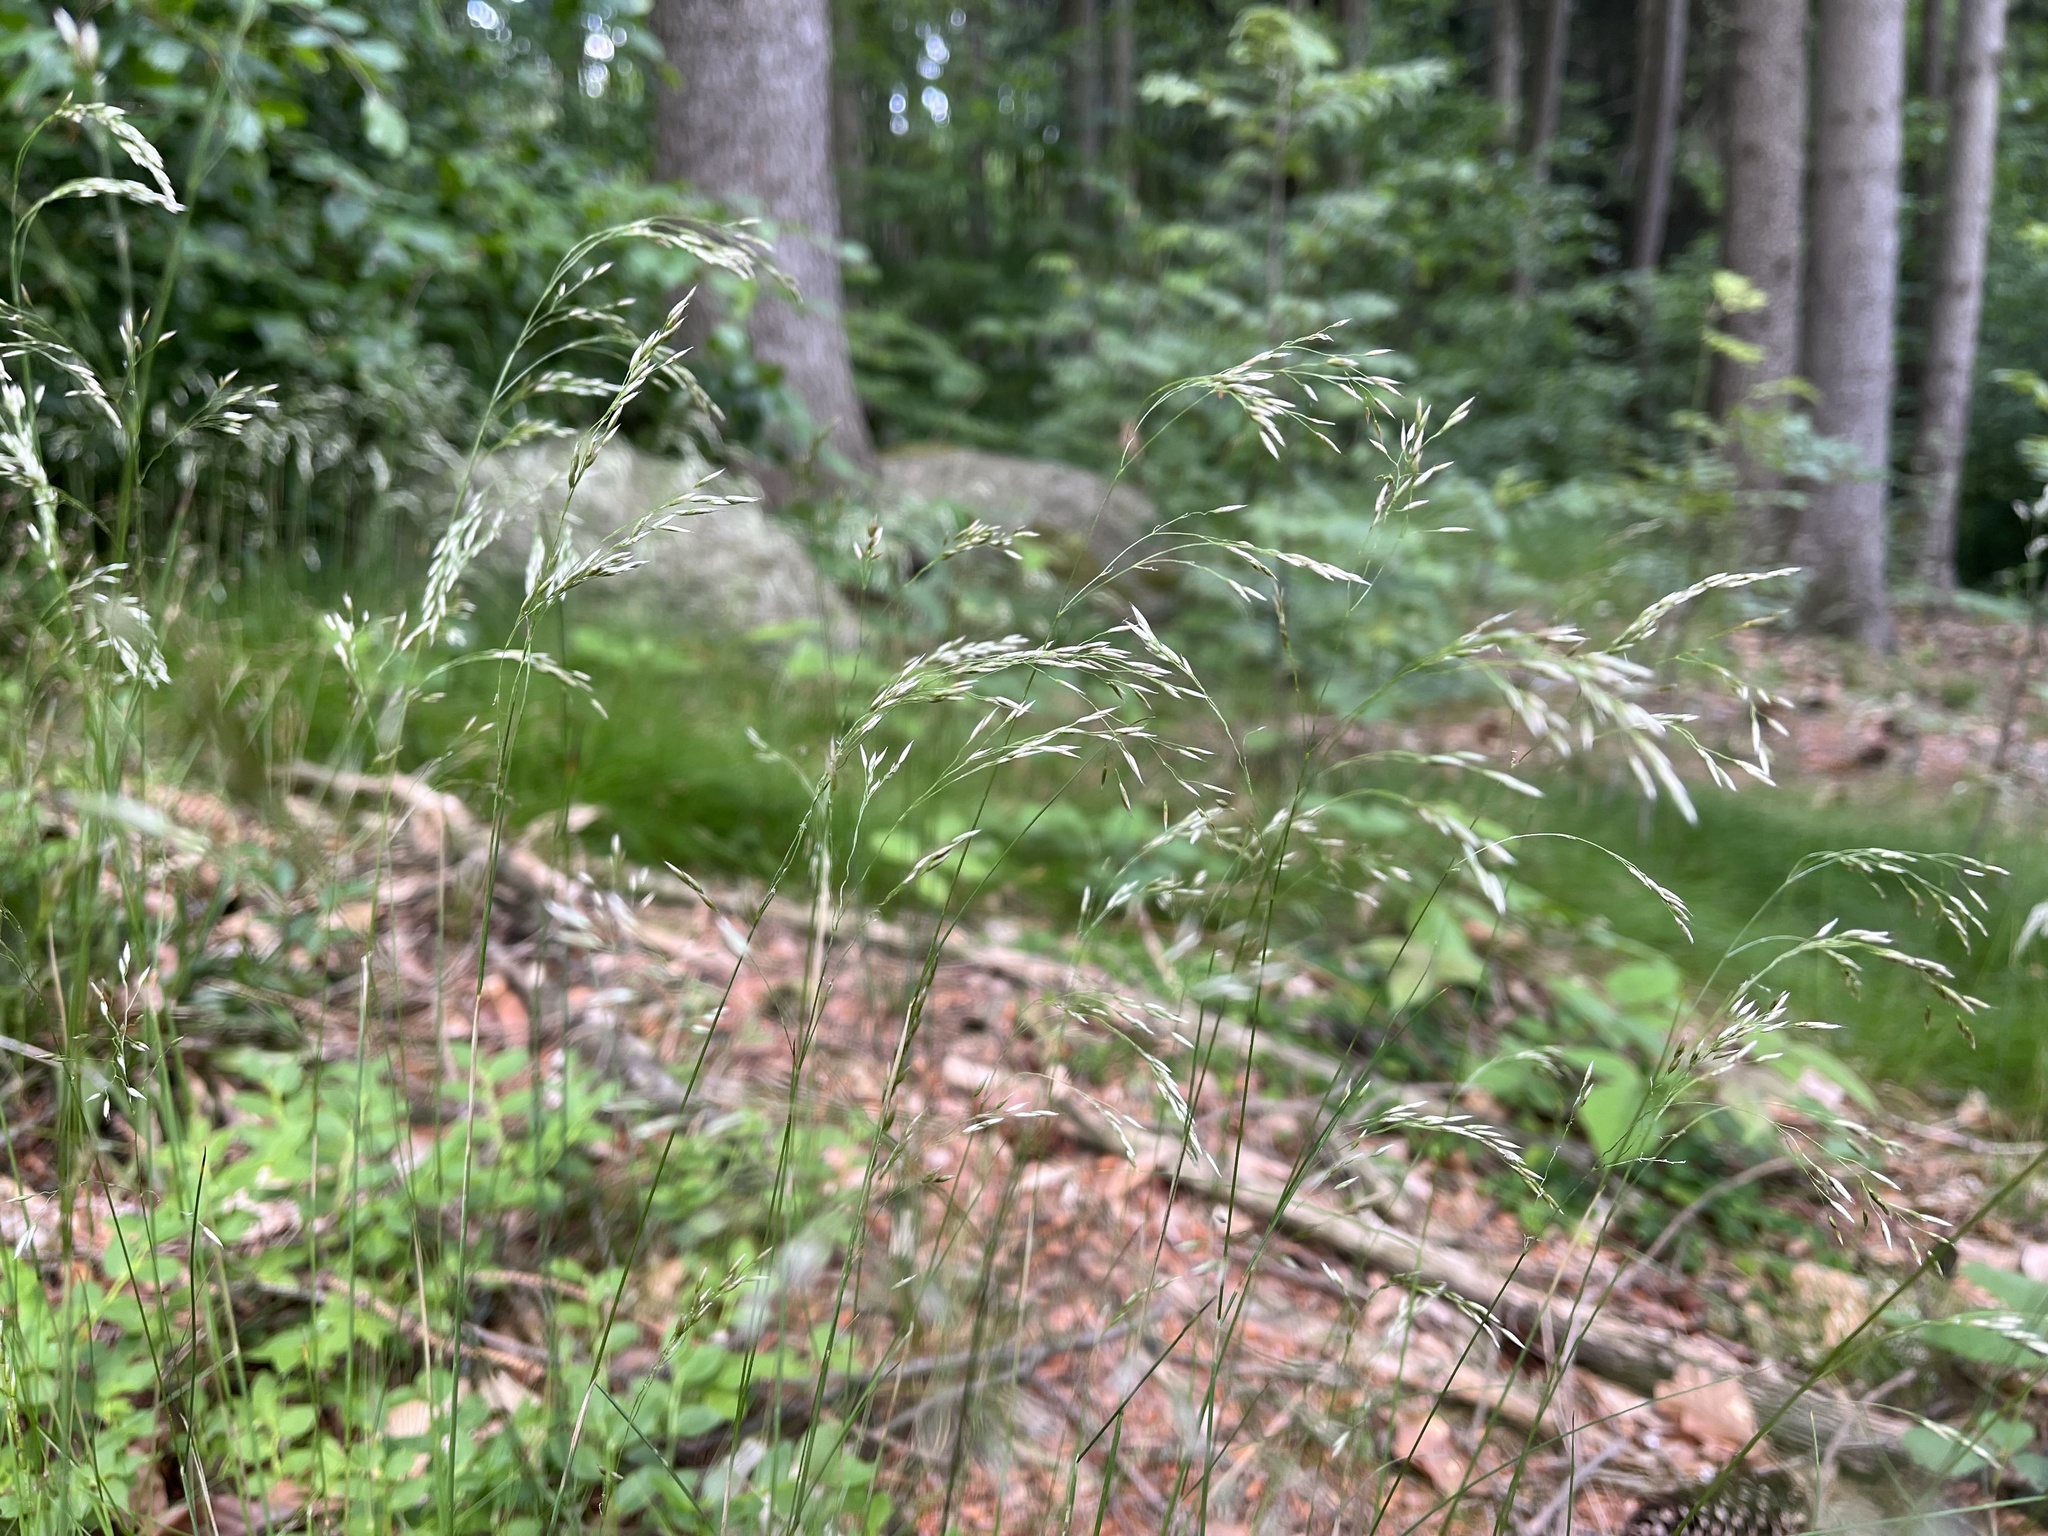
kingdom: Plantae
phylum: Tracheophyta
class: Liliopsida
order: Poales
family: Poaceae
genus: Avenella
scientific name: Avenella flexuosa
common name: Wavy hairgrass
